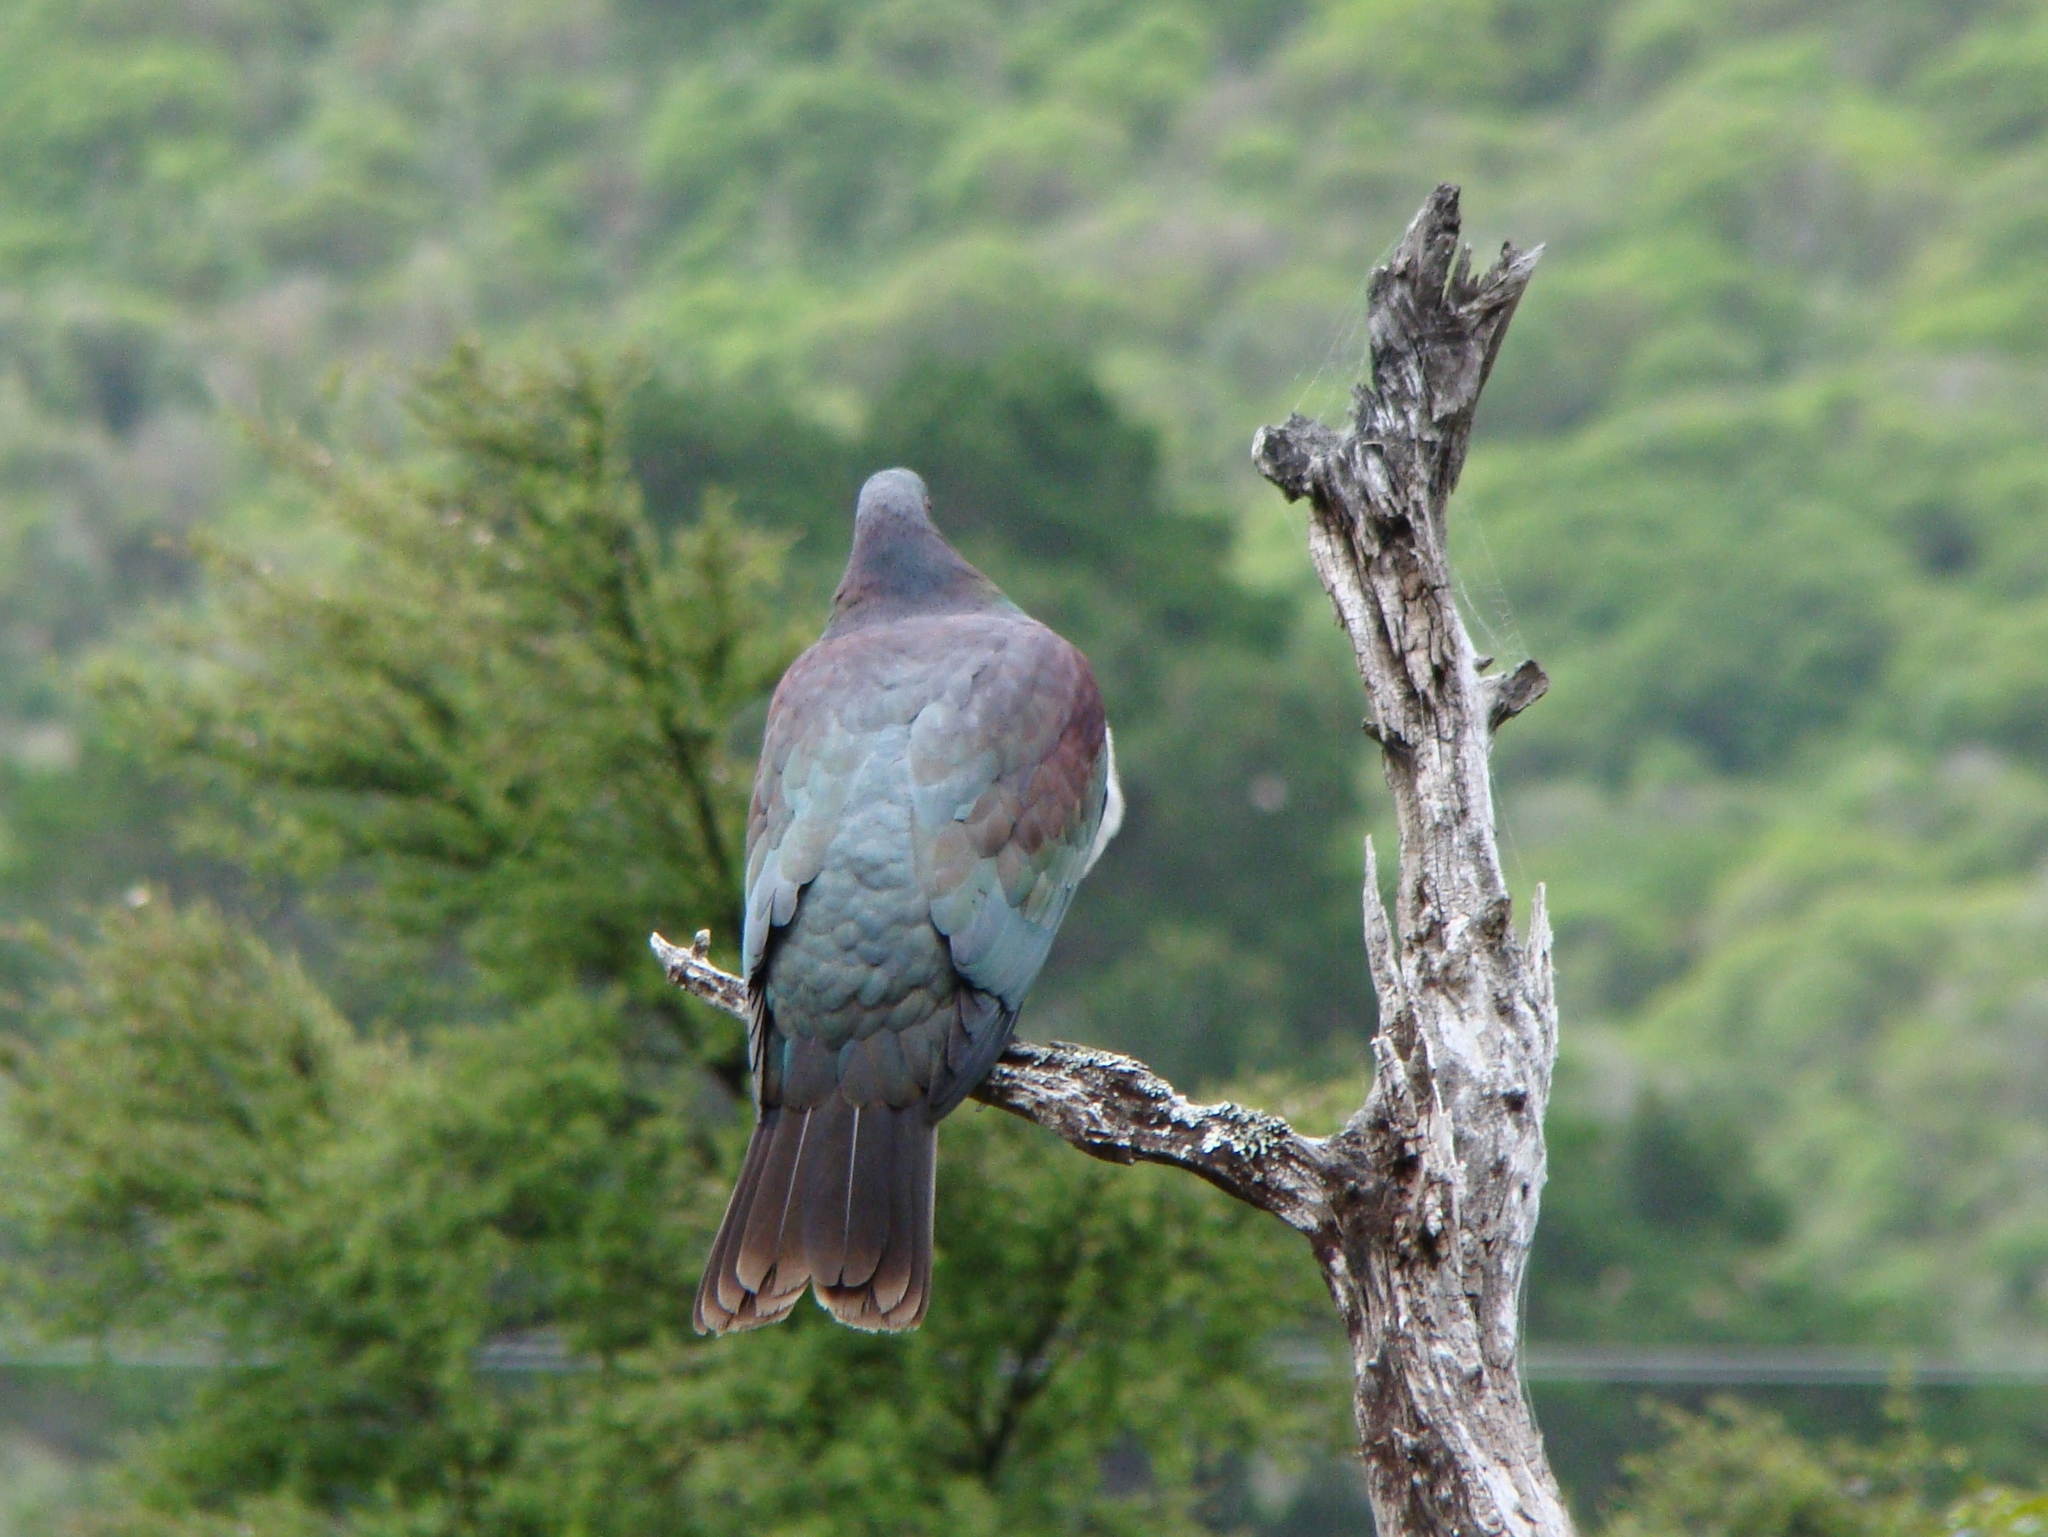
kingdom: Animalia
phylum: Chordata
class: Aves
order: Columbiformes
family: Columbidae
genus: Hemiphaga
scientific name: Hemiphaga novaeseelandiae
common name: New zealand pigeon
